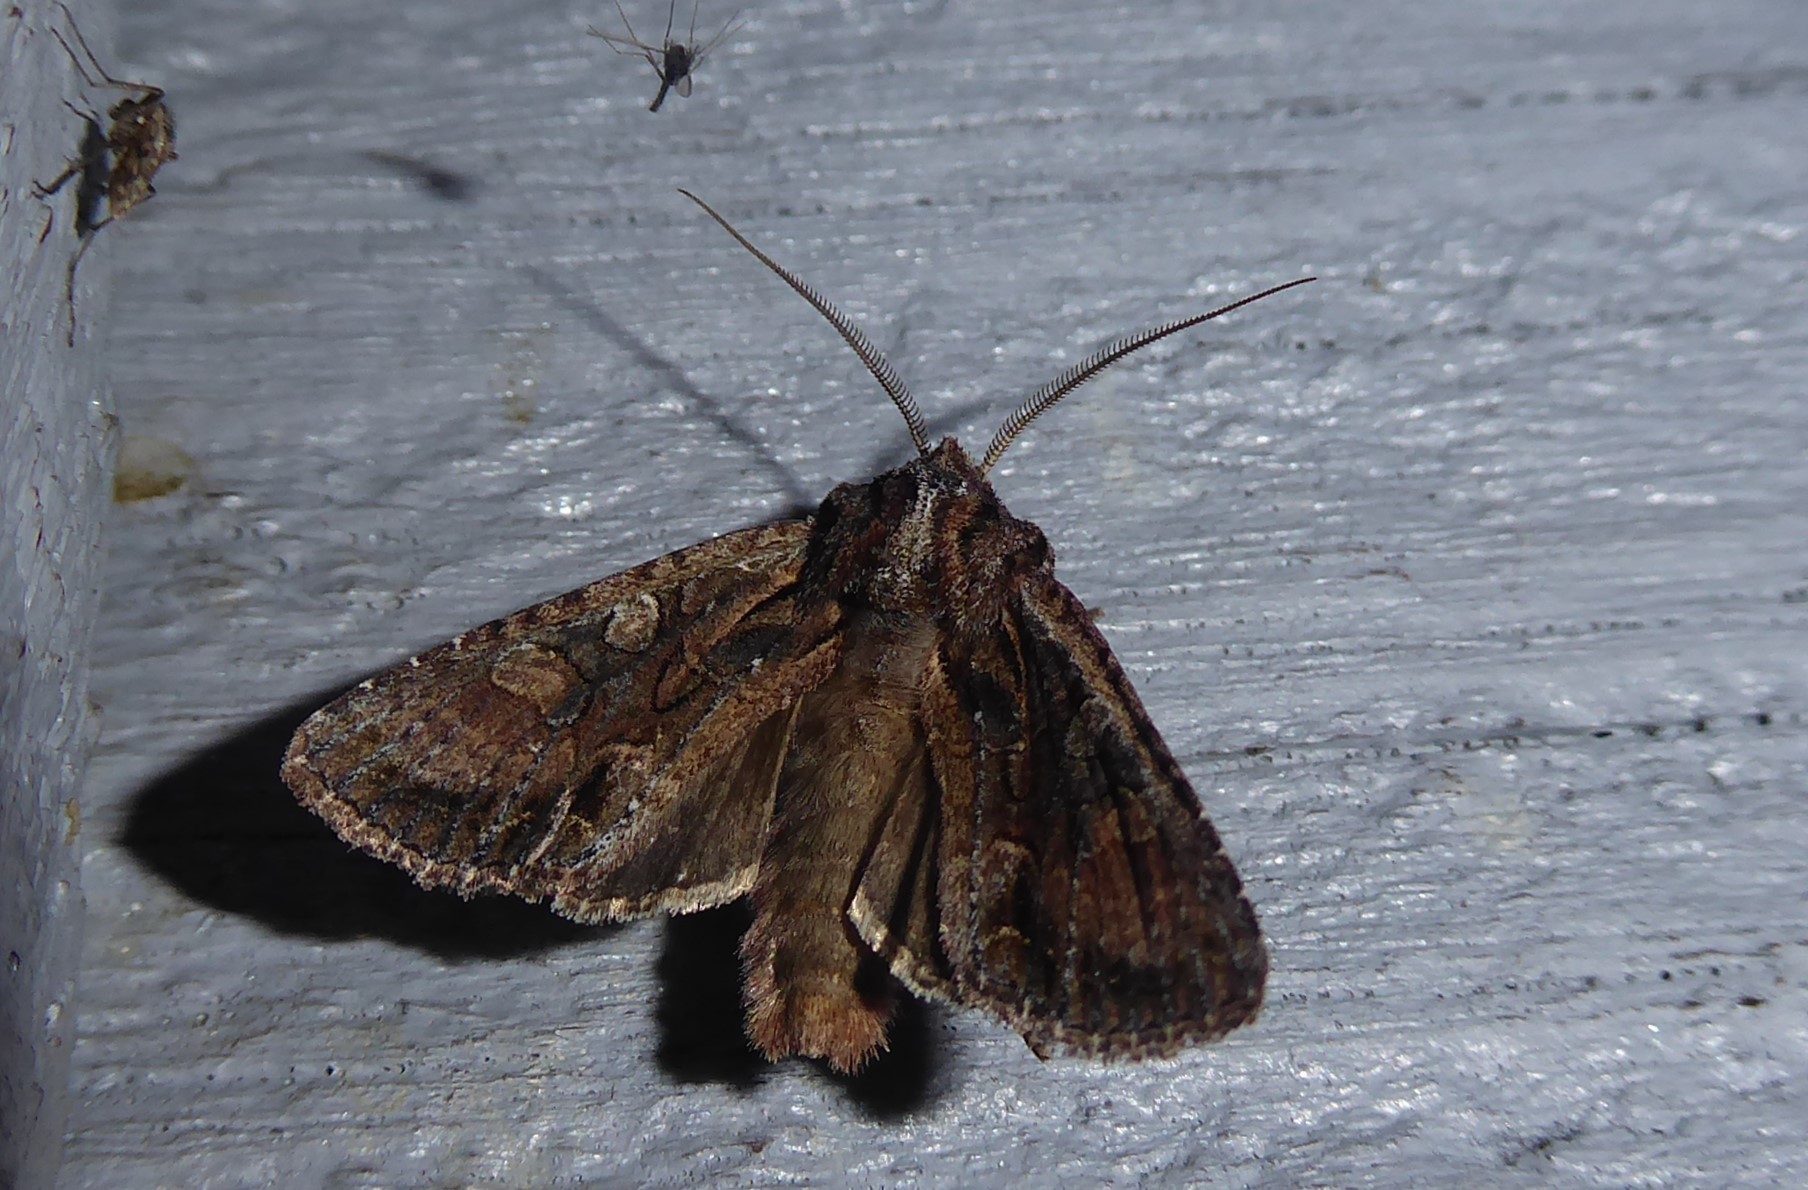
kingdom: Animalia
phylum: Arthropoda
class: Insecta
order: Lepidoptera
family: Noctuidae
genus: Ichneutica
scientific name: Ichneutica mutans
